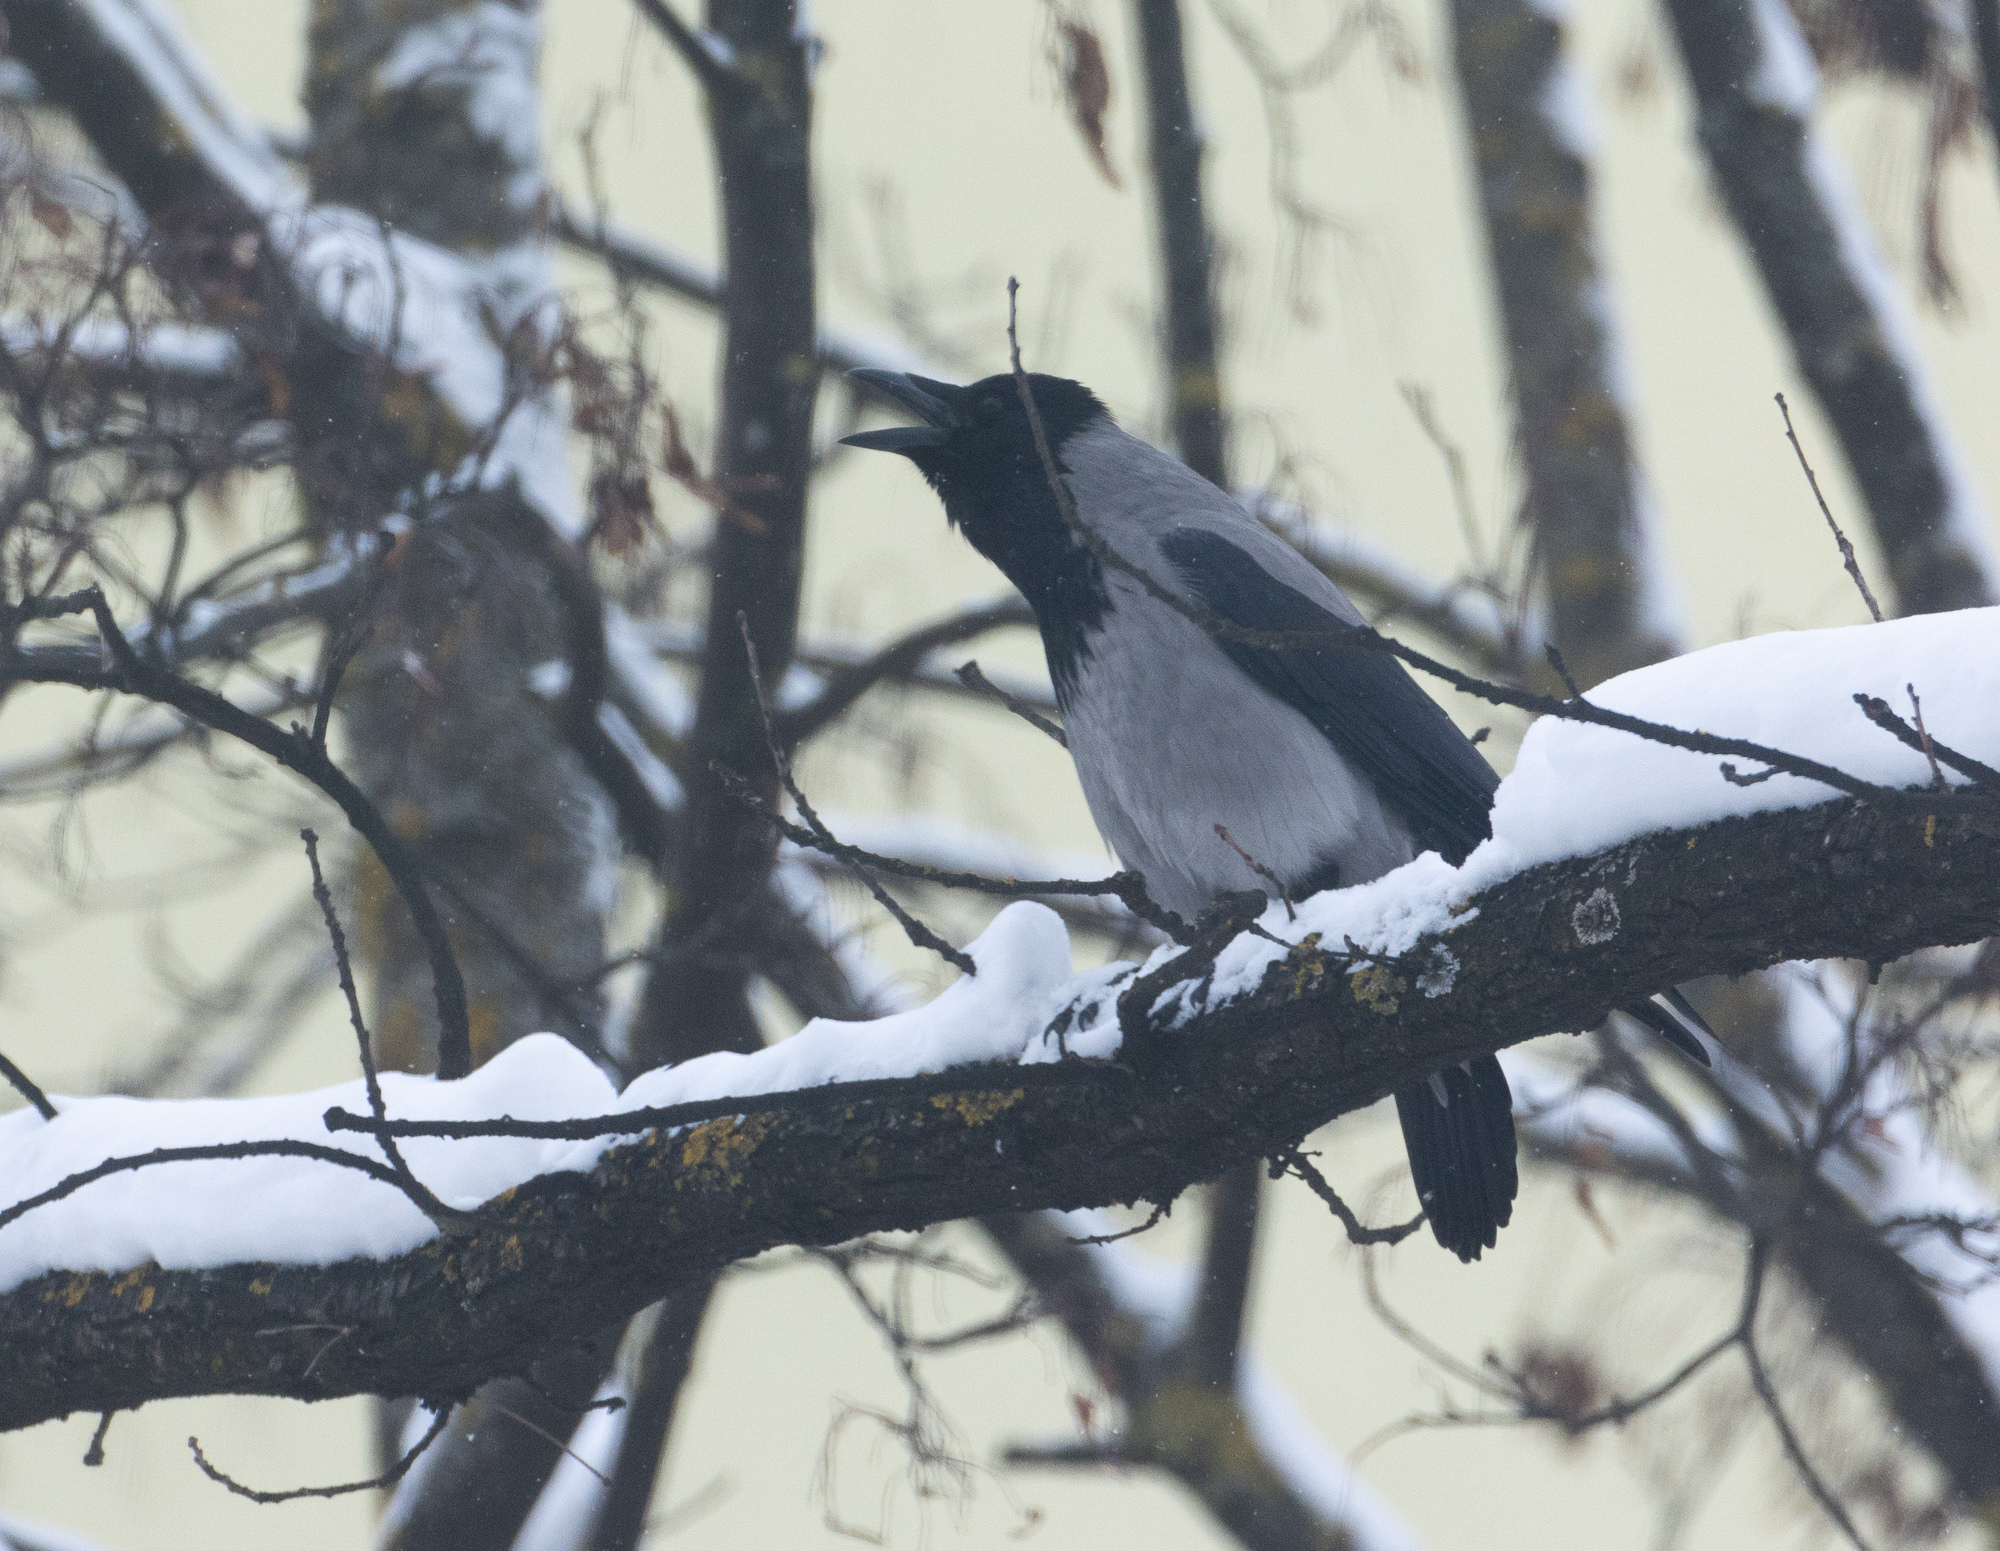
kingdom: Animalia
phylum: Chordata
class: Aves
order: Passeriformes
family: Corvidae
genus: Corvus
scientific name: Corvus cornix
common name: Hooded crow
